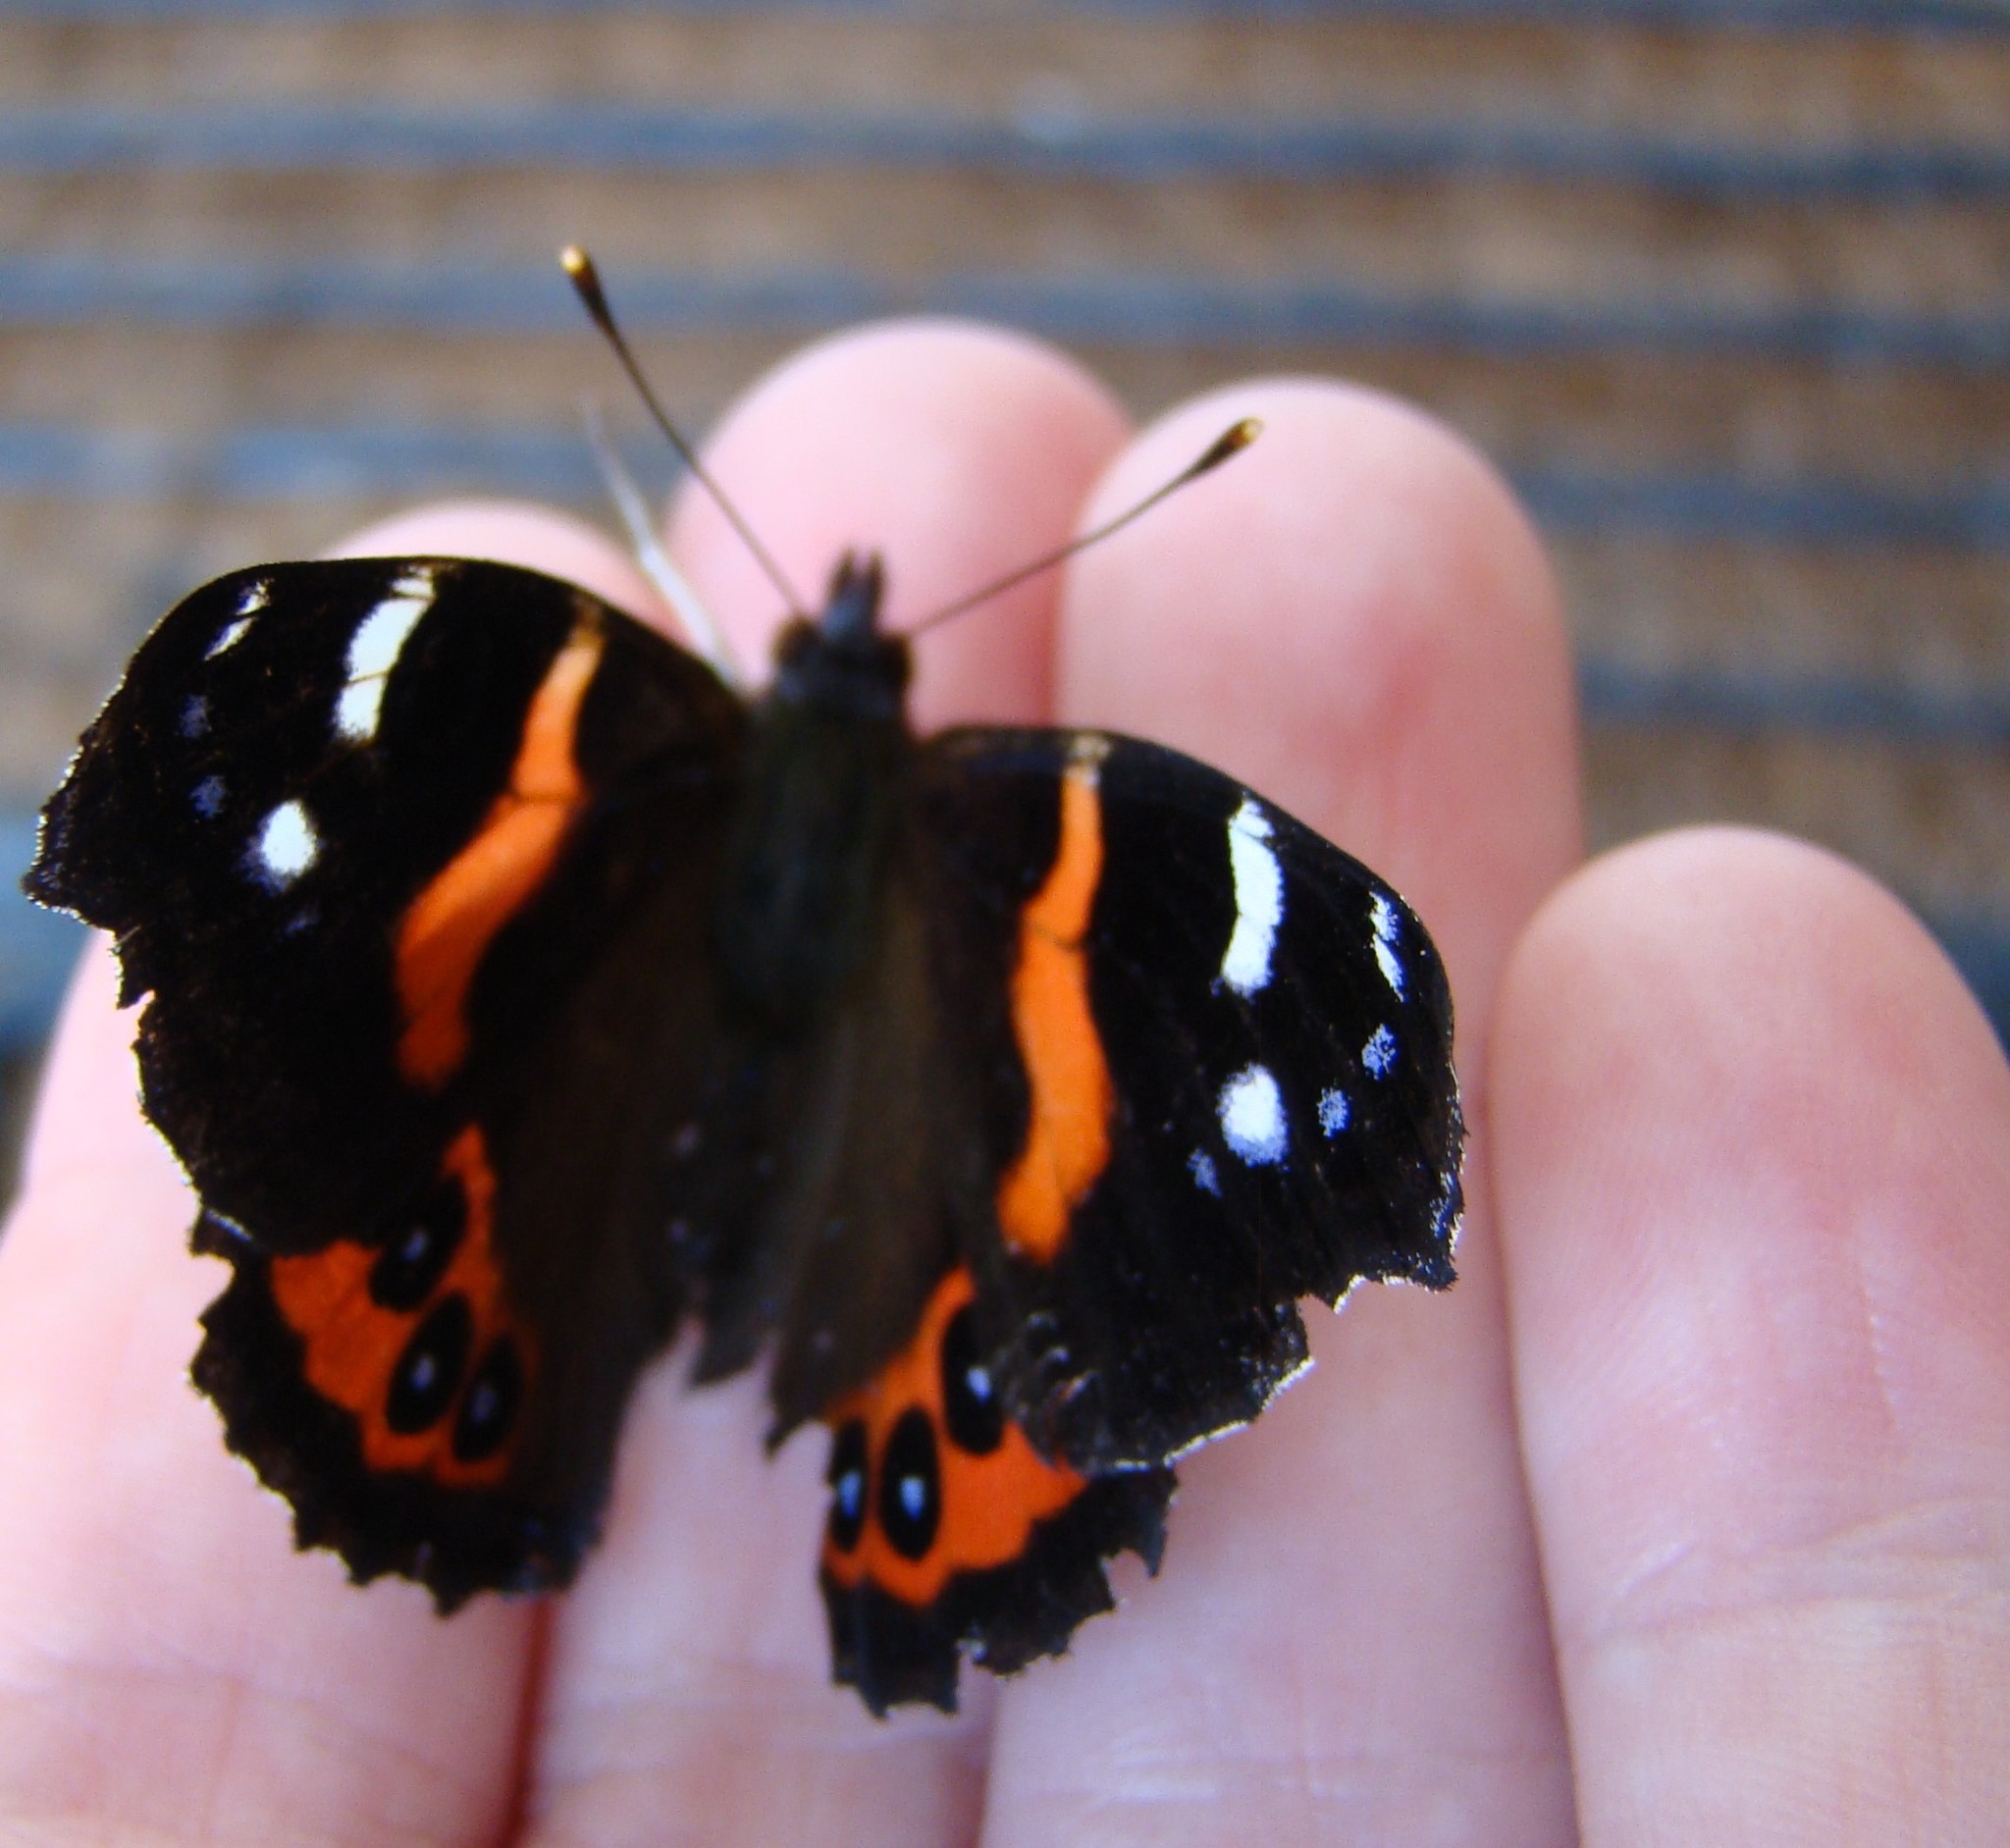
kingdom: Animalia
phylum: Arthropoda
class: Insecta
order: Lepidoptera
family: Nymphalidae
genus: Vanessa
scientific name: Vanessa gonerilla
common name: New zealand red admiral
